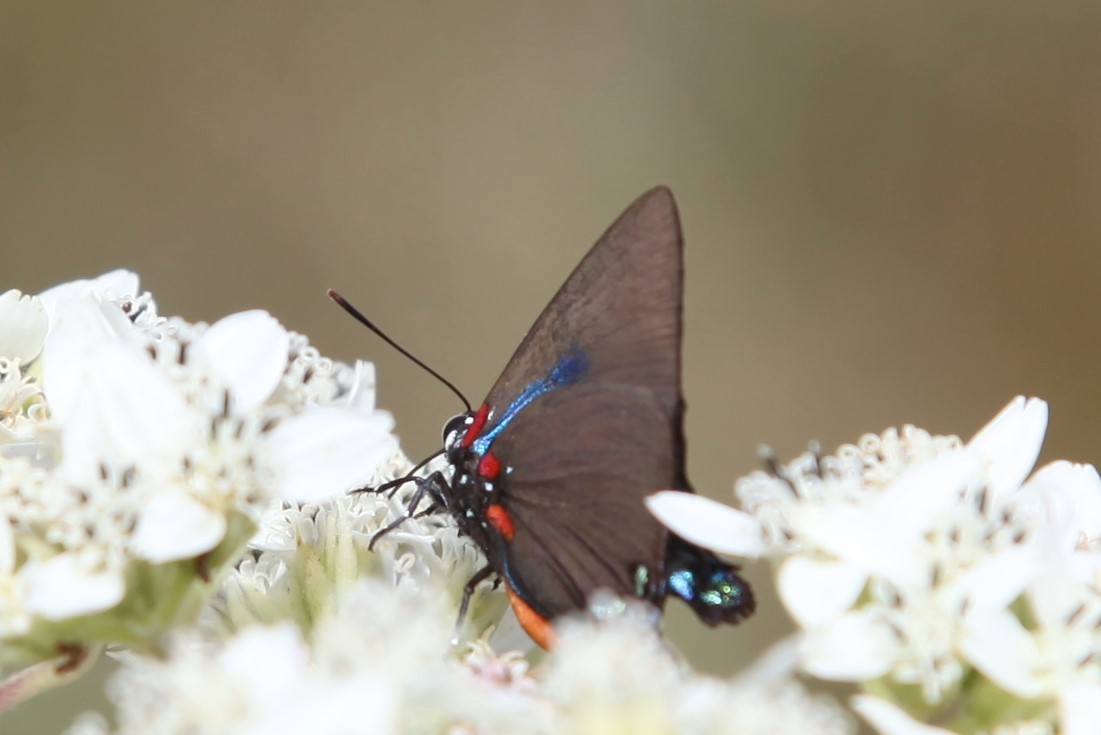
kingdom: Animalia
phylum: Arthropoda
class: Insecta
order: Lepidoptera
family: Lycaenidae
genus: Atlides
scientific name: Atlides halesus
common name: Great purple hairstreak
